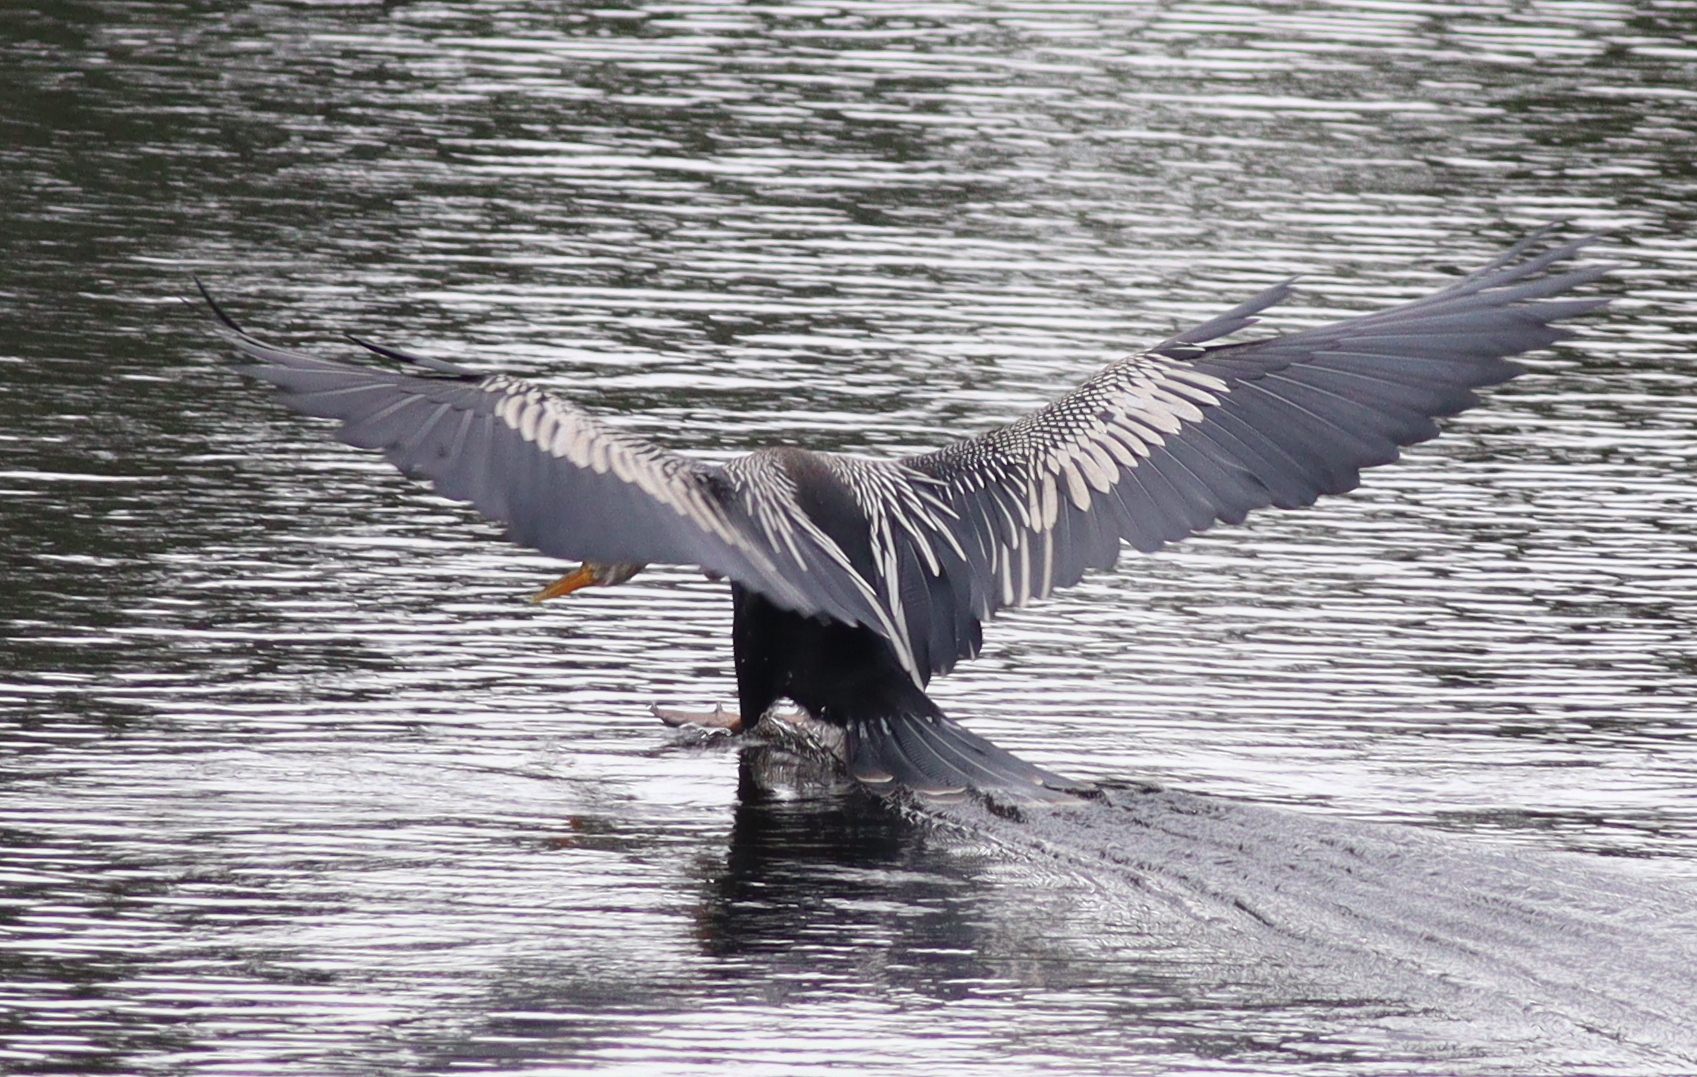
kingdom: Animalia
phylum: Chordata
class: Aves
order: Suliformes
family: Anhingidae
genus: Anhinga
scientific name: Anhinga anhinga
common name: Anhinga
